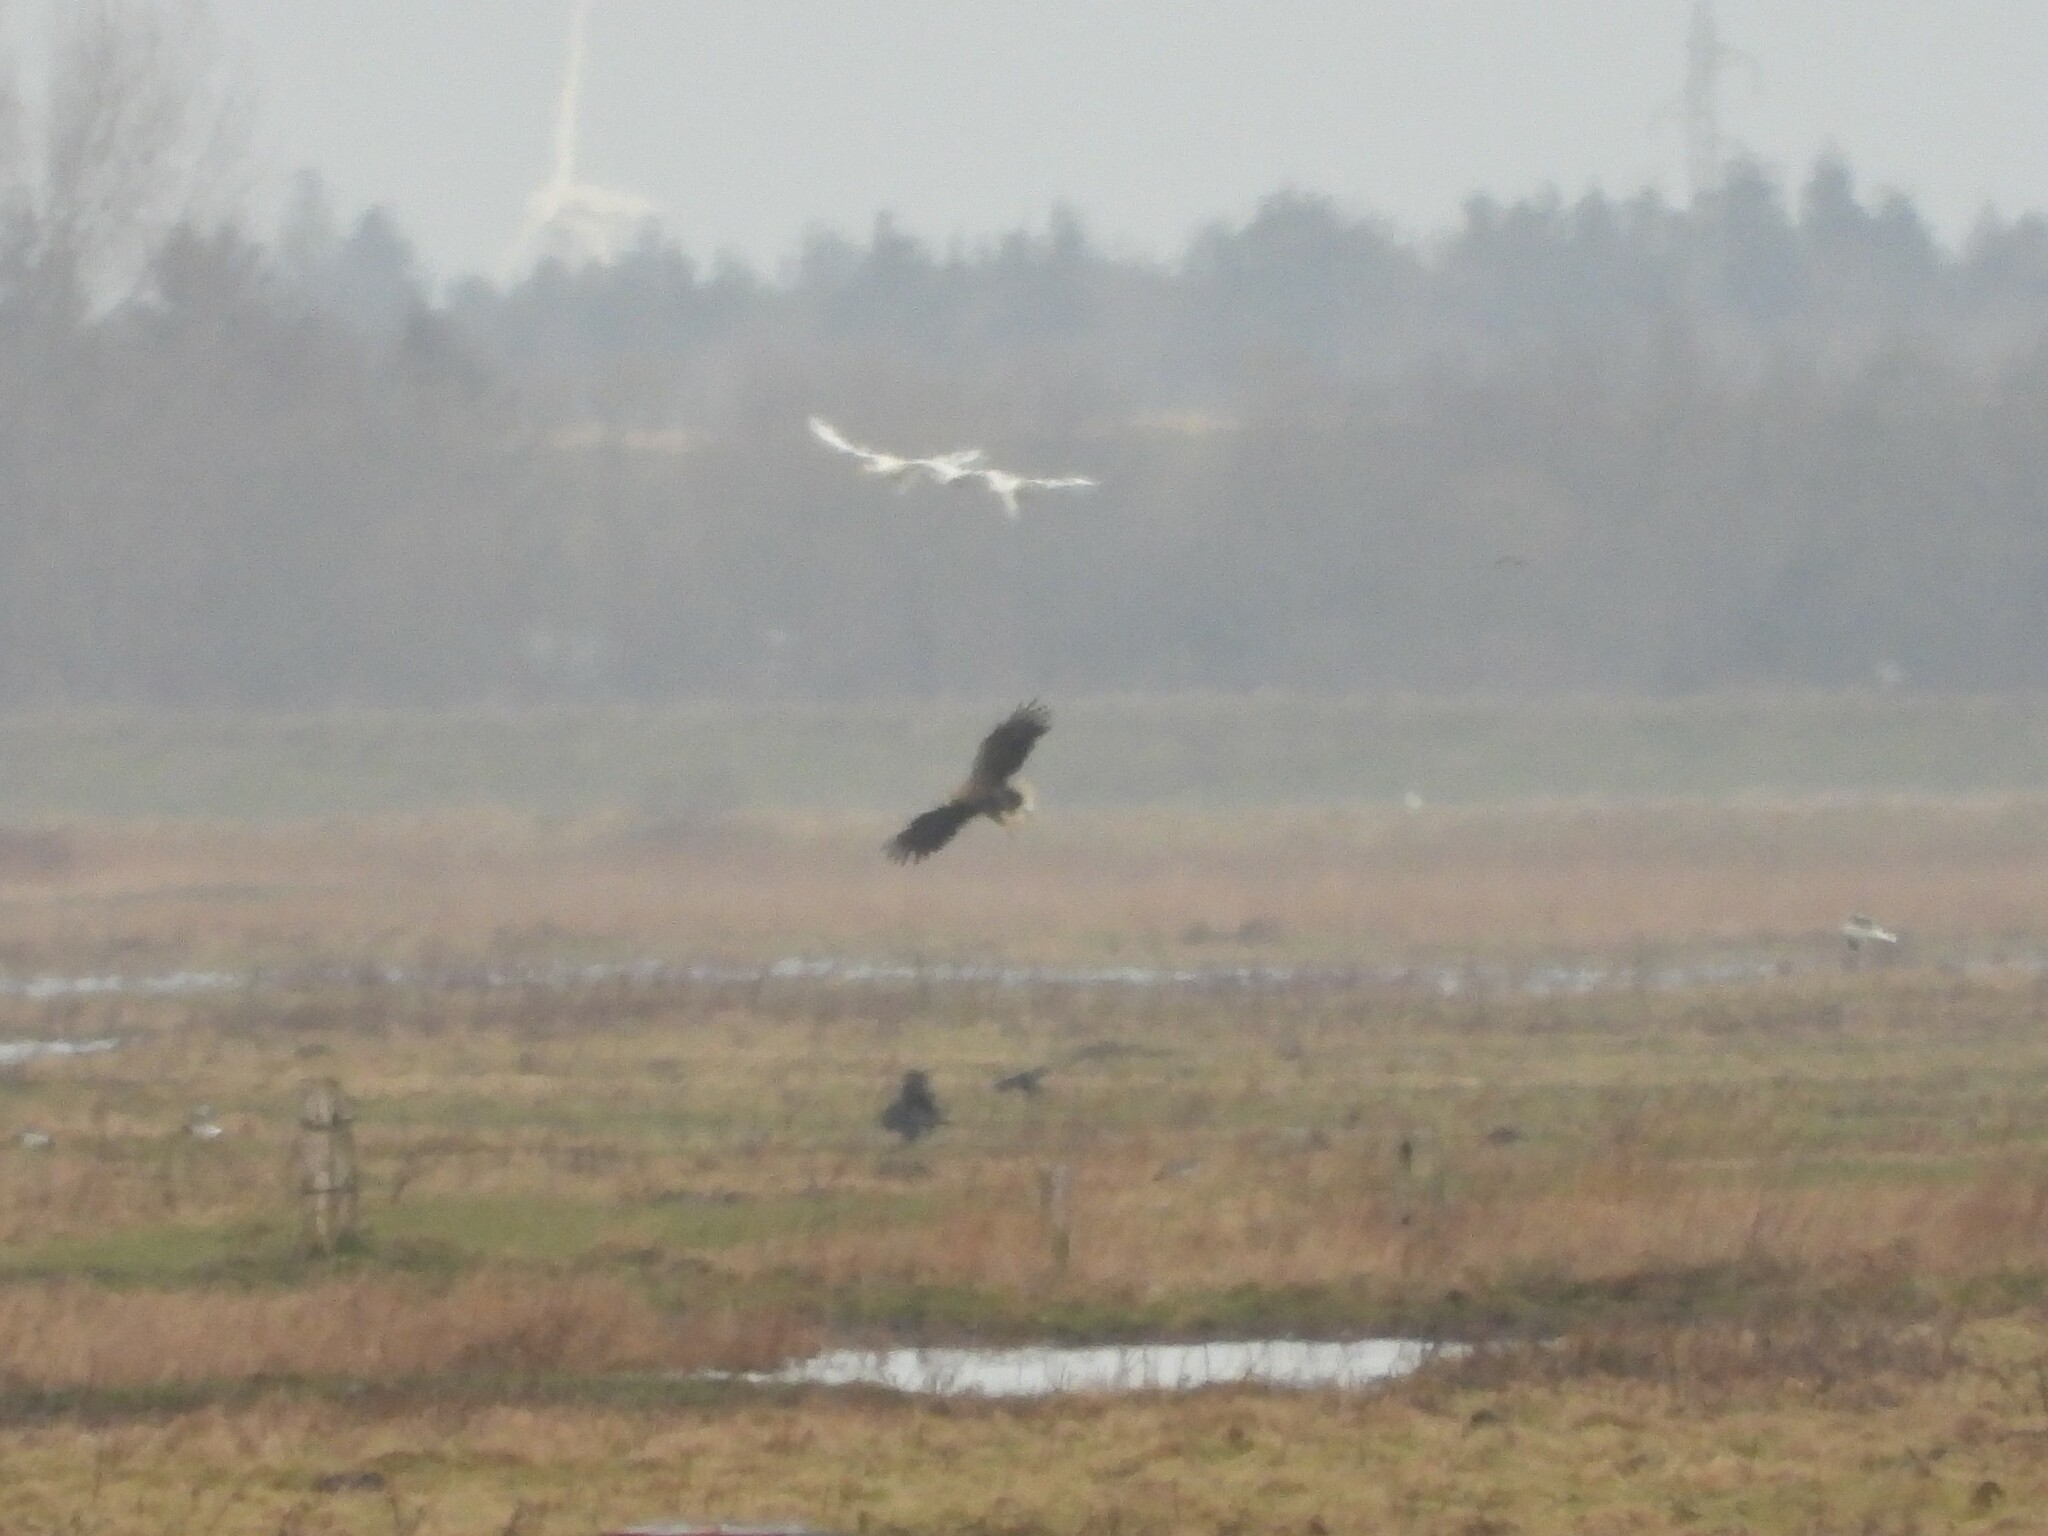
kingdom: Animalia
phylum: Chordata
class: Aves
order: Accipitriformes
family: Accipitridae
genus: Haliaeetus
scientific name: Haliaeetus albicilla
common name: White-tailed eagle
